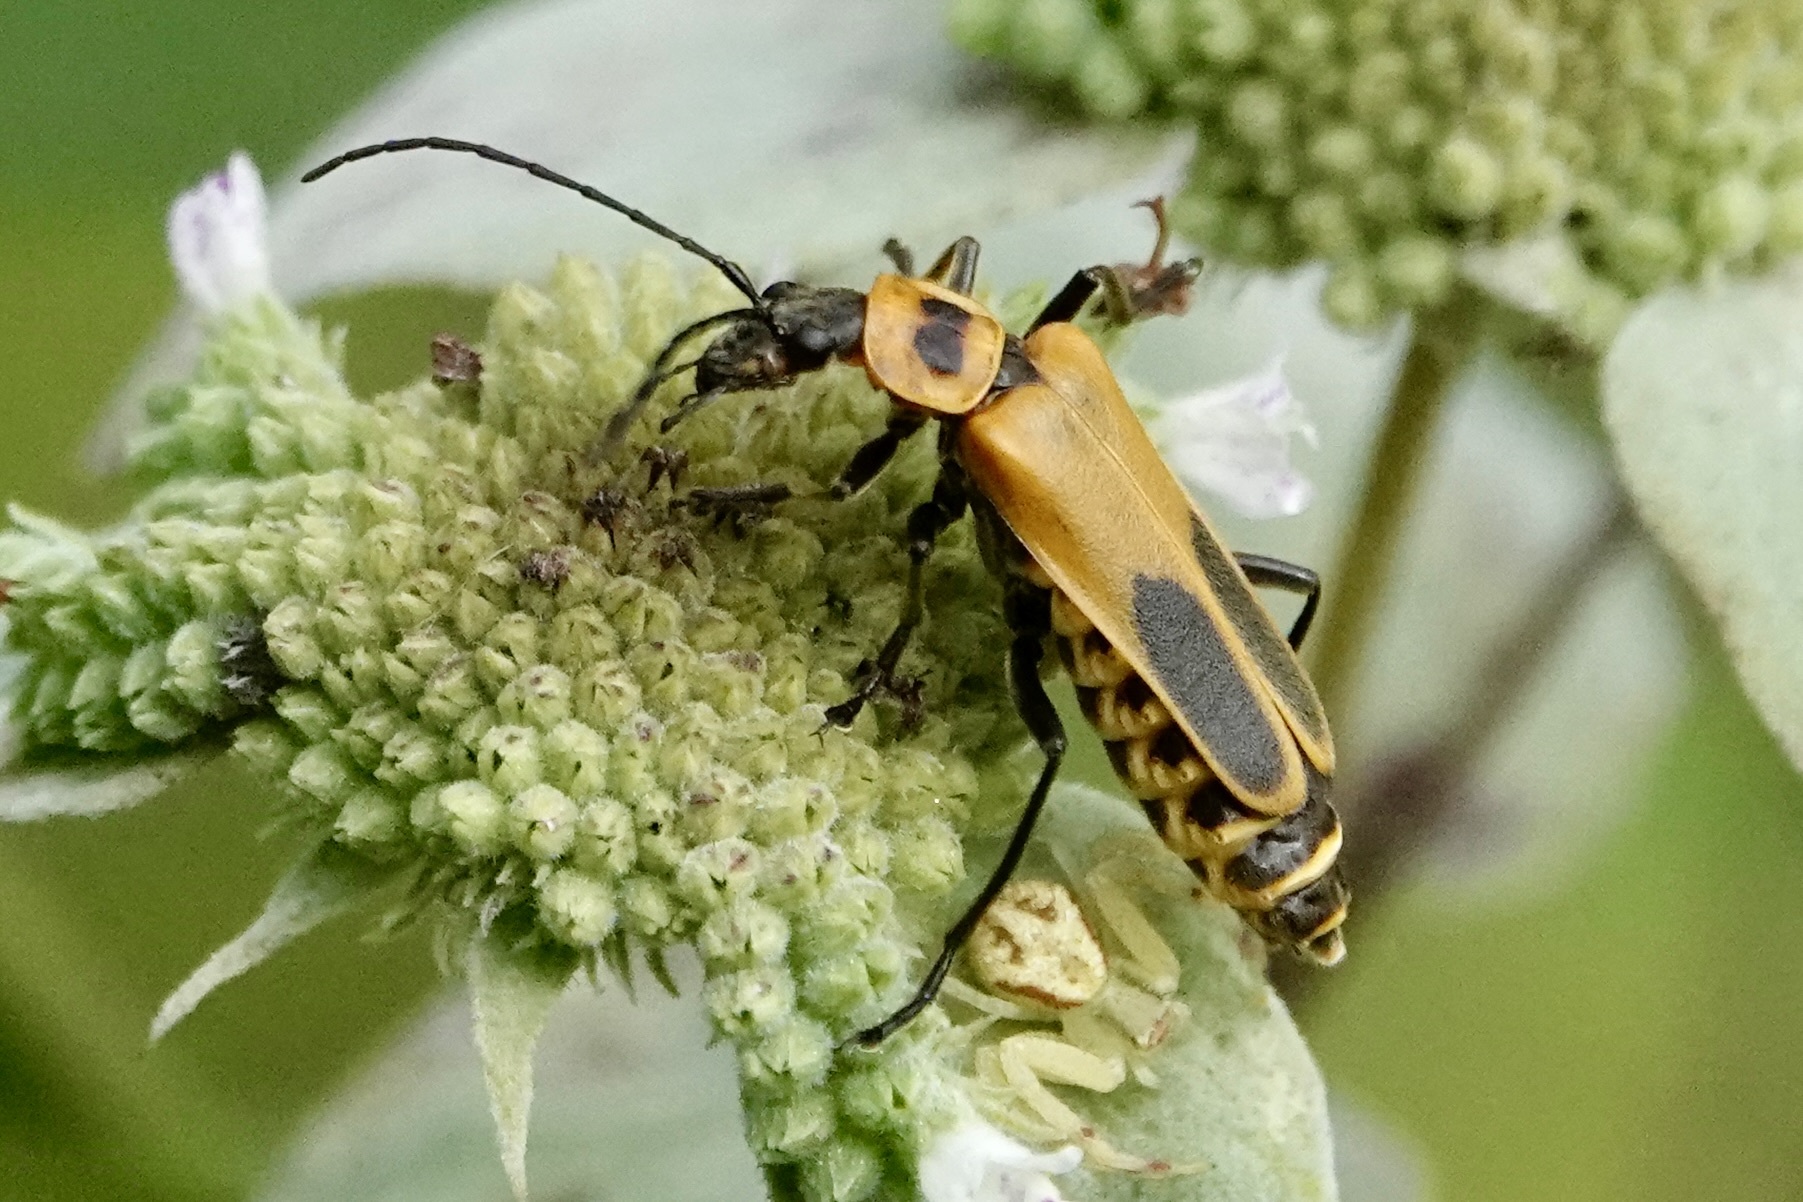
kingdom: Animalia
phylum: Arthropoda
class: Insecta
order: Coleoptera
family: Cantharidae
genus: Chauliognathus
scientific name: Chauliognathus pensylvanicus
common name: Goldenrod soldier beetle
